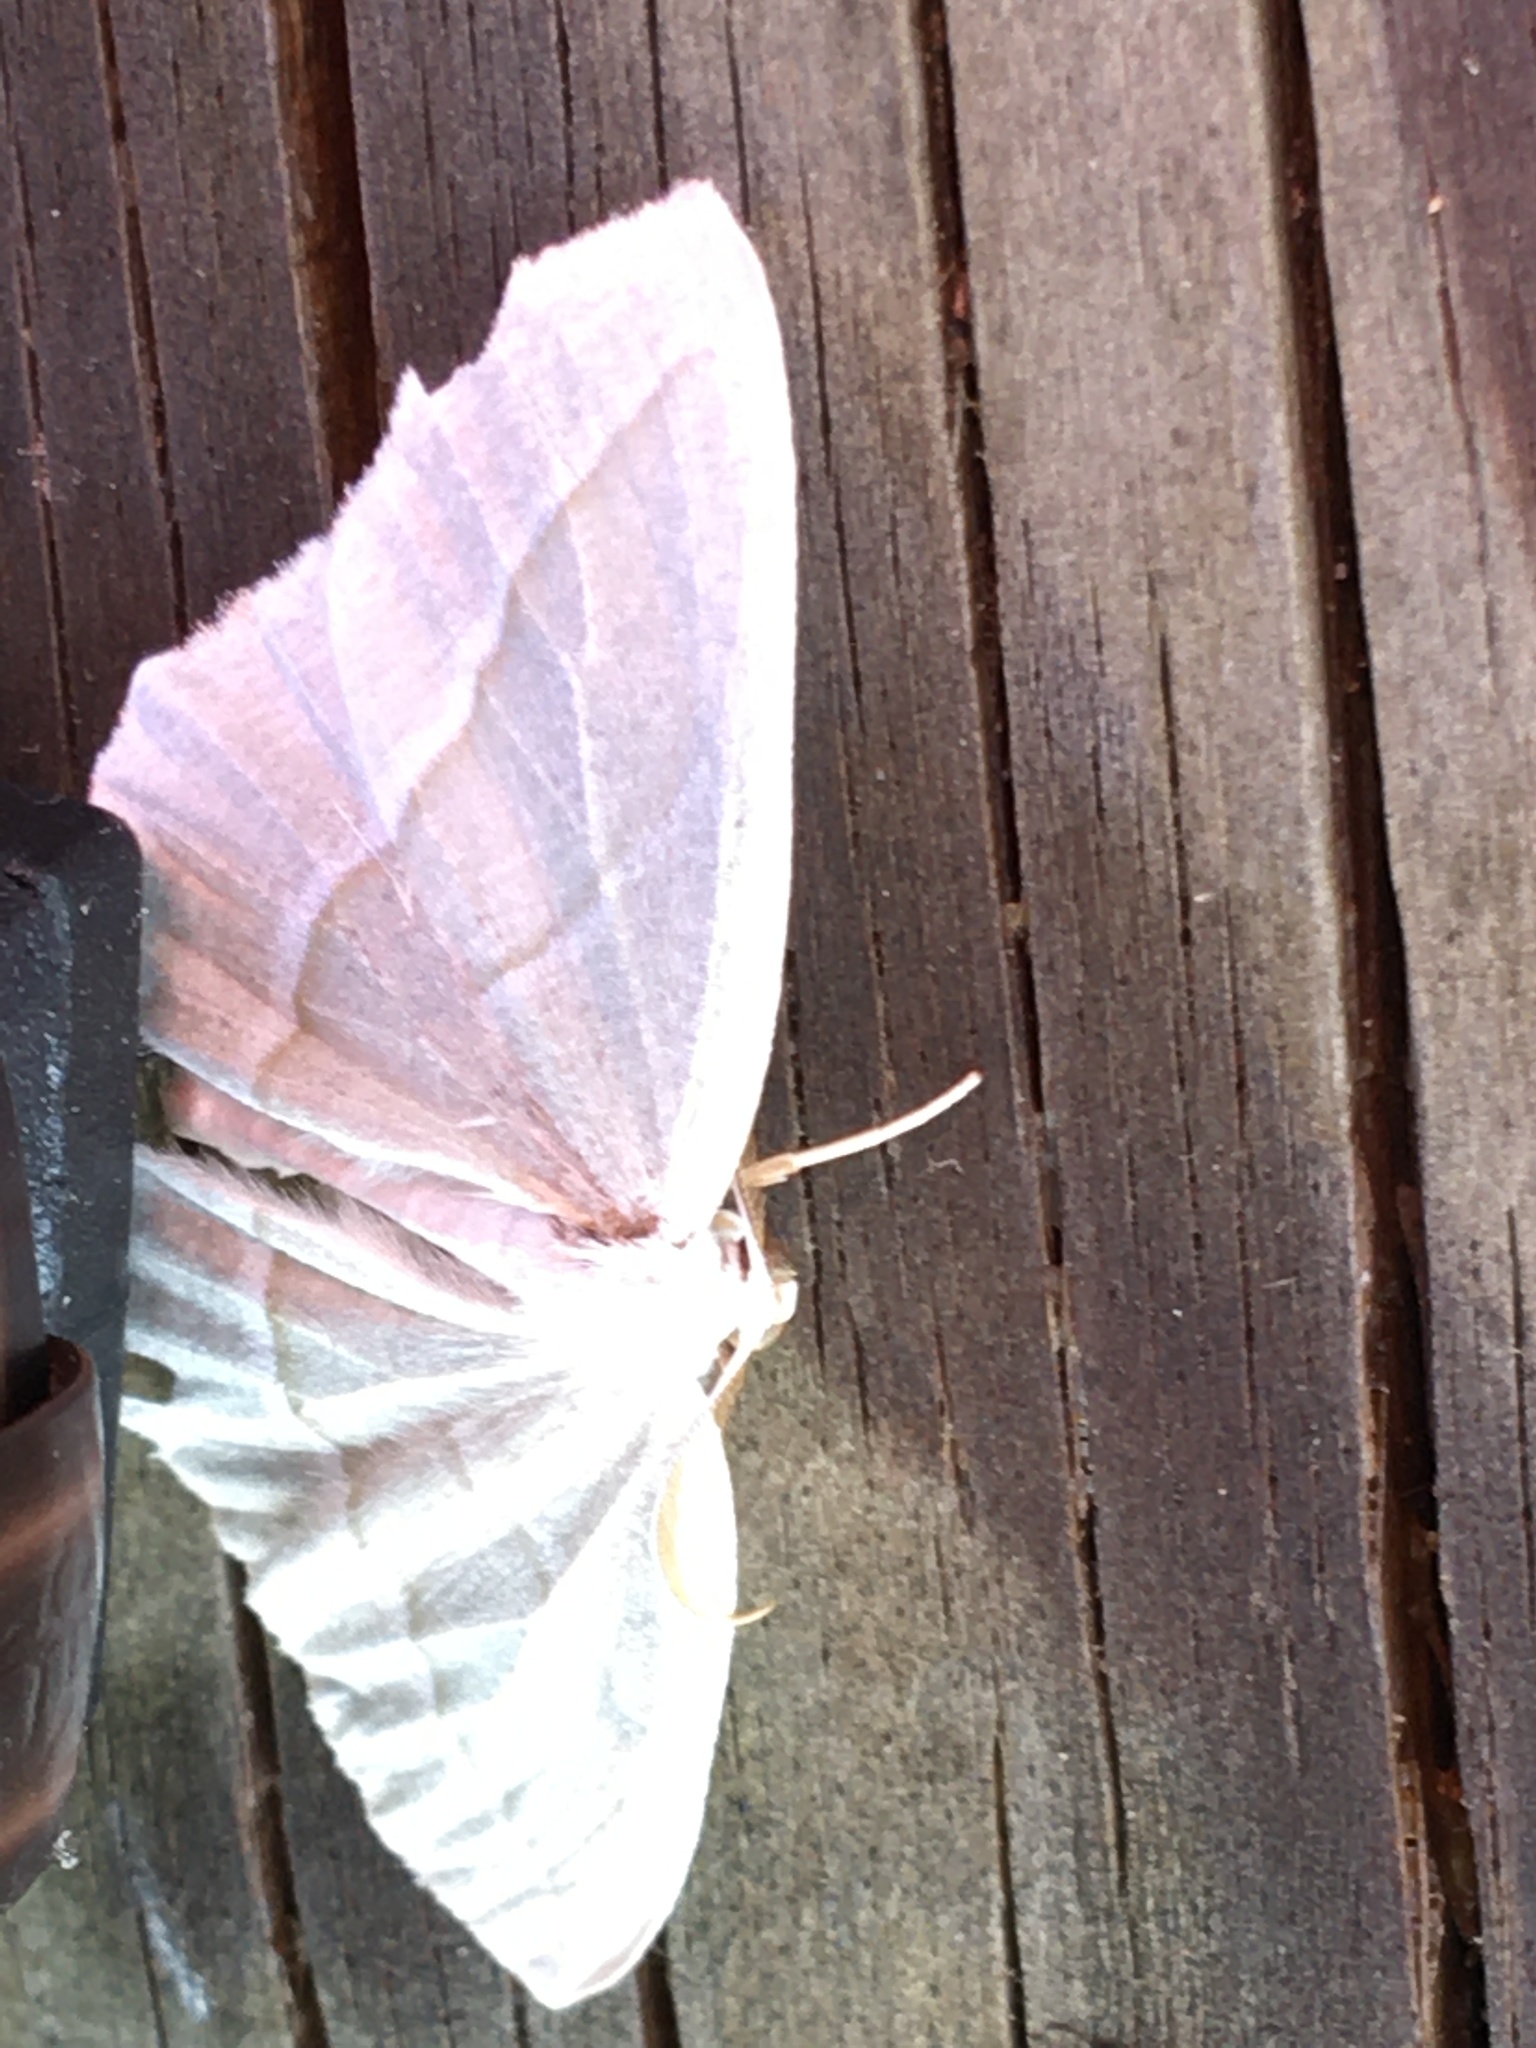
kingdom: Animalia
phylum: Arthropoda
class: Insecta
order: Lepidoptera
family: Geometridae
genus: Campaea
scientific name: Campaea perlata
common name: Fringed looper
